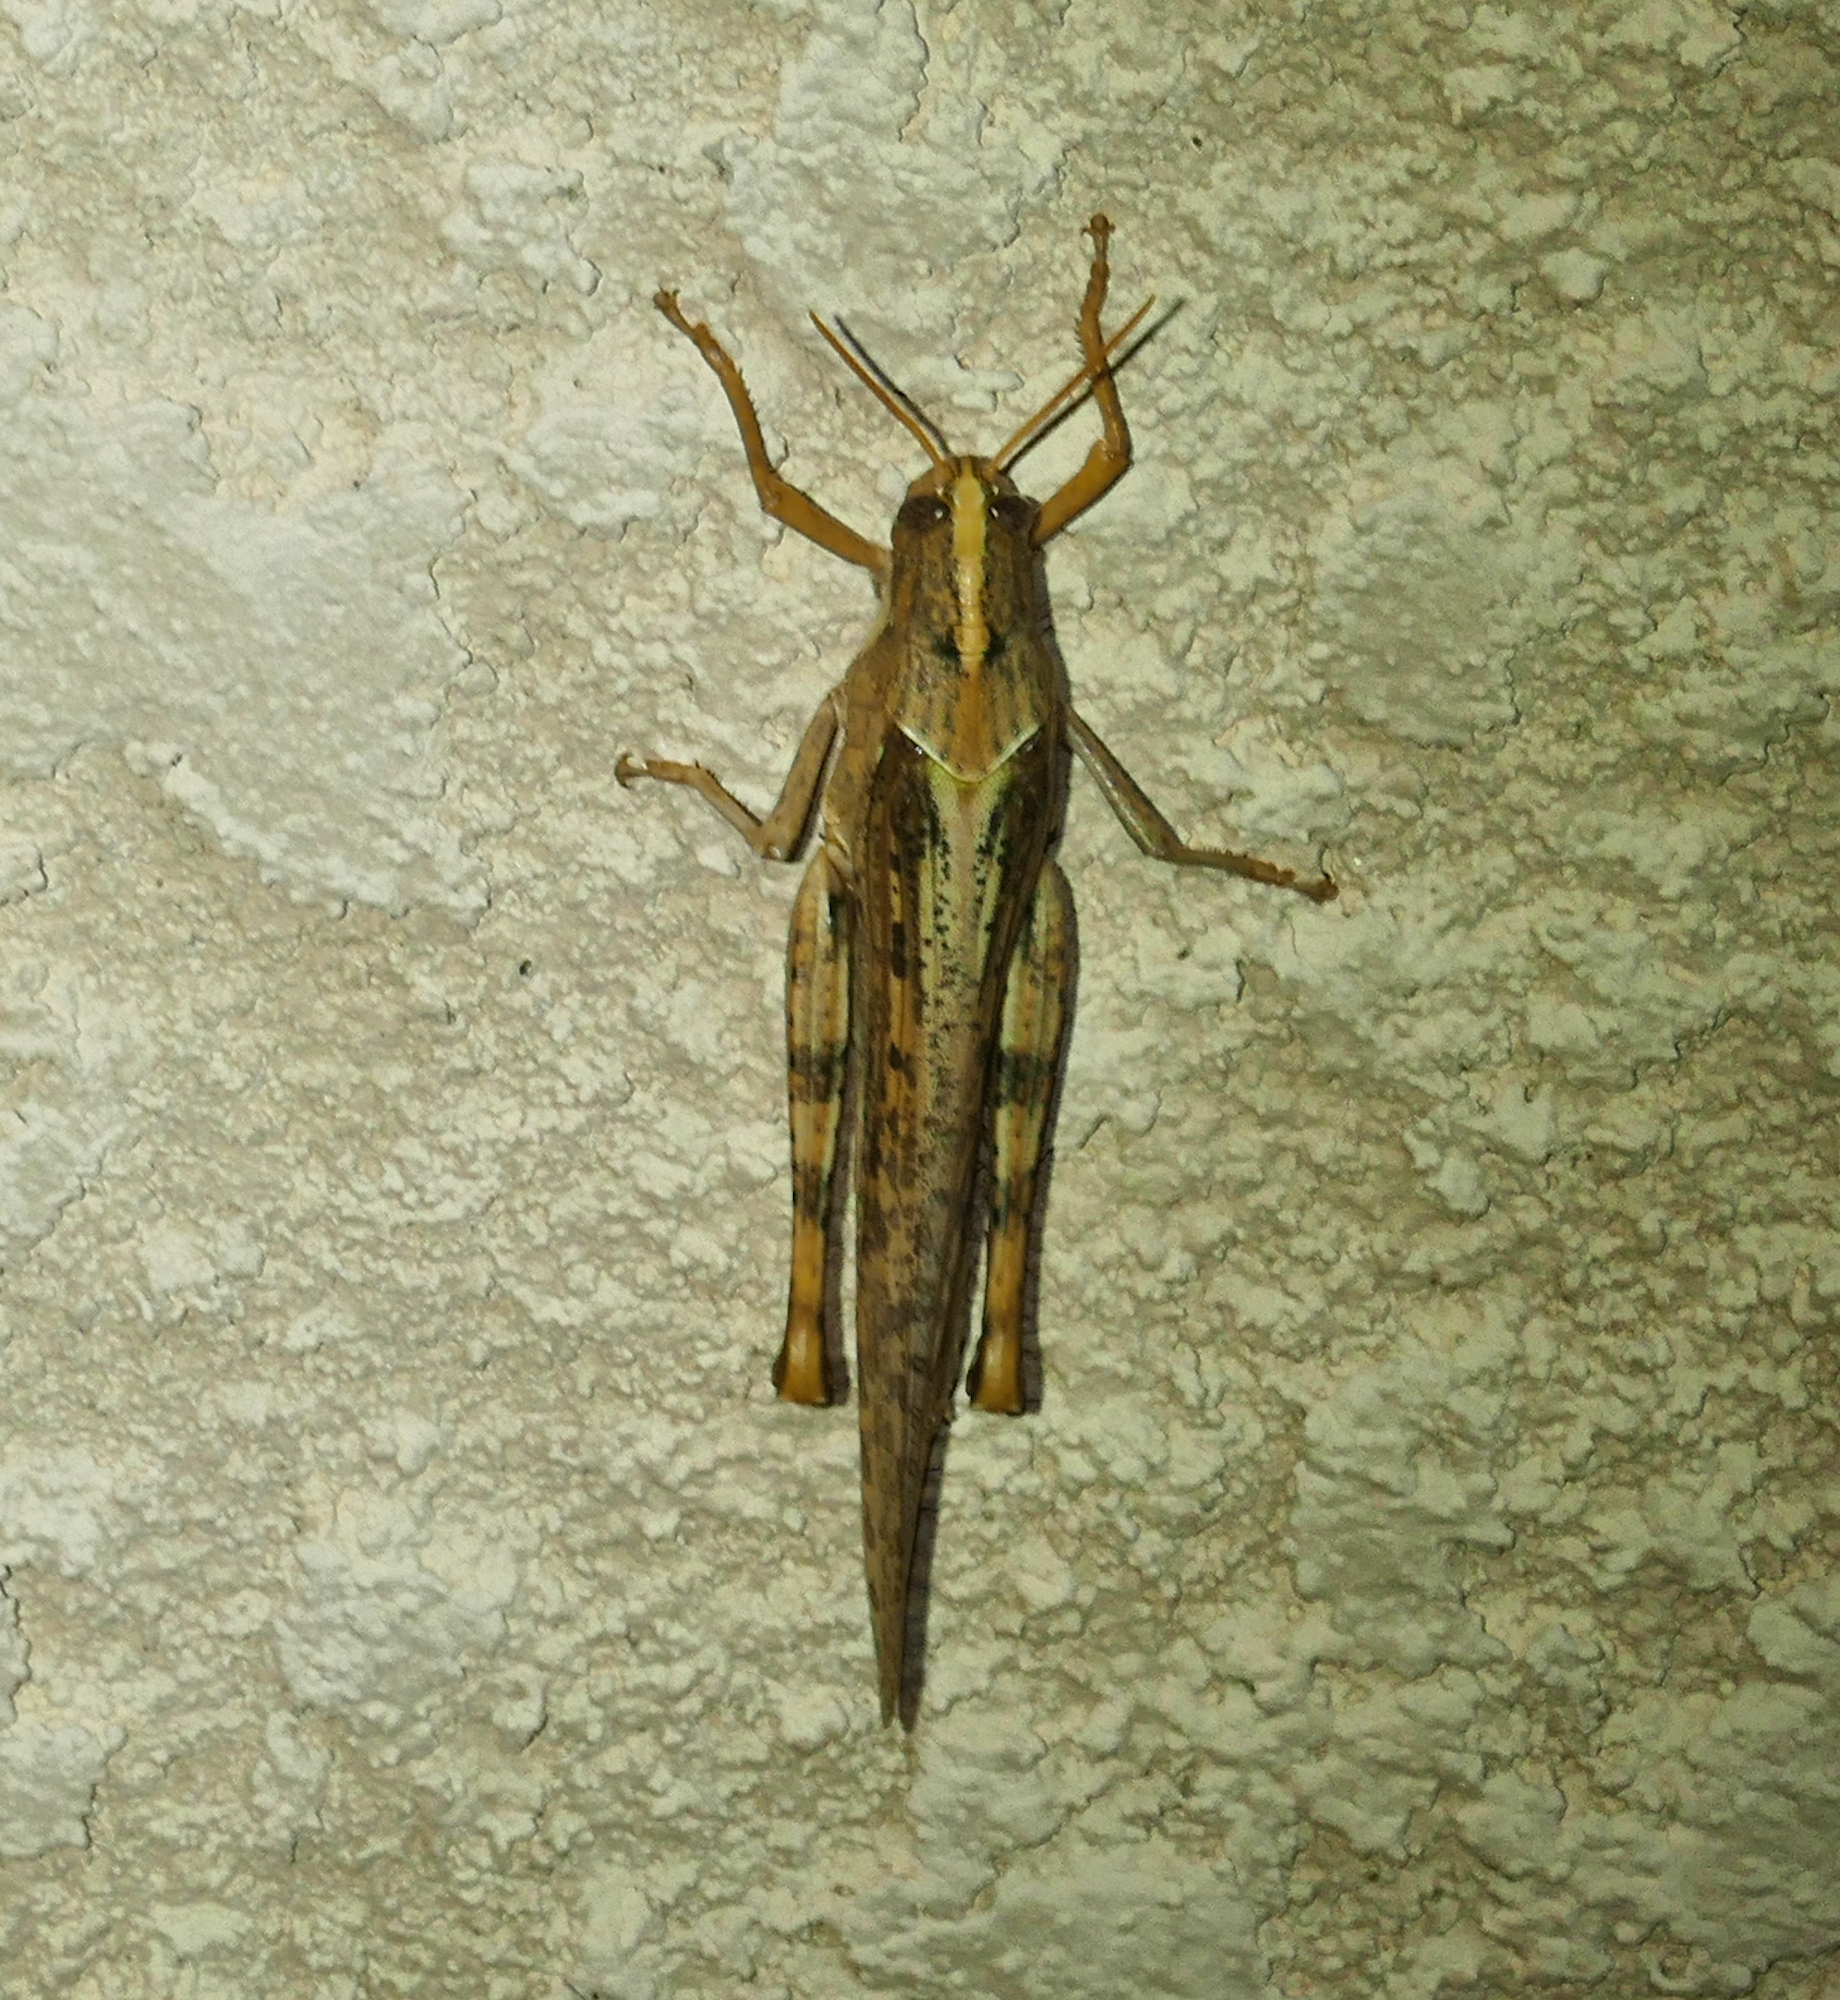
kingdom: Animalia
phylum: Arthropoda
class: Insecta
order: Orthoptera
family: Acrididae
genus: Schistocerca
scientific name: Schistocerca nitens
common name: Vagrant grasshopper
